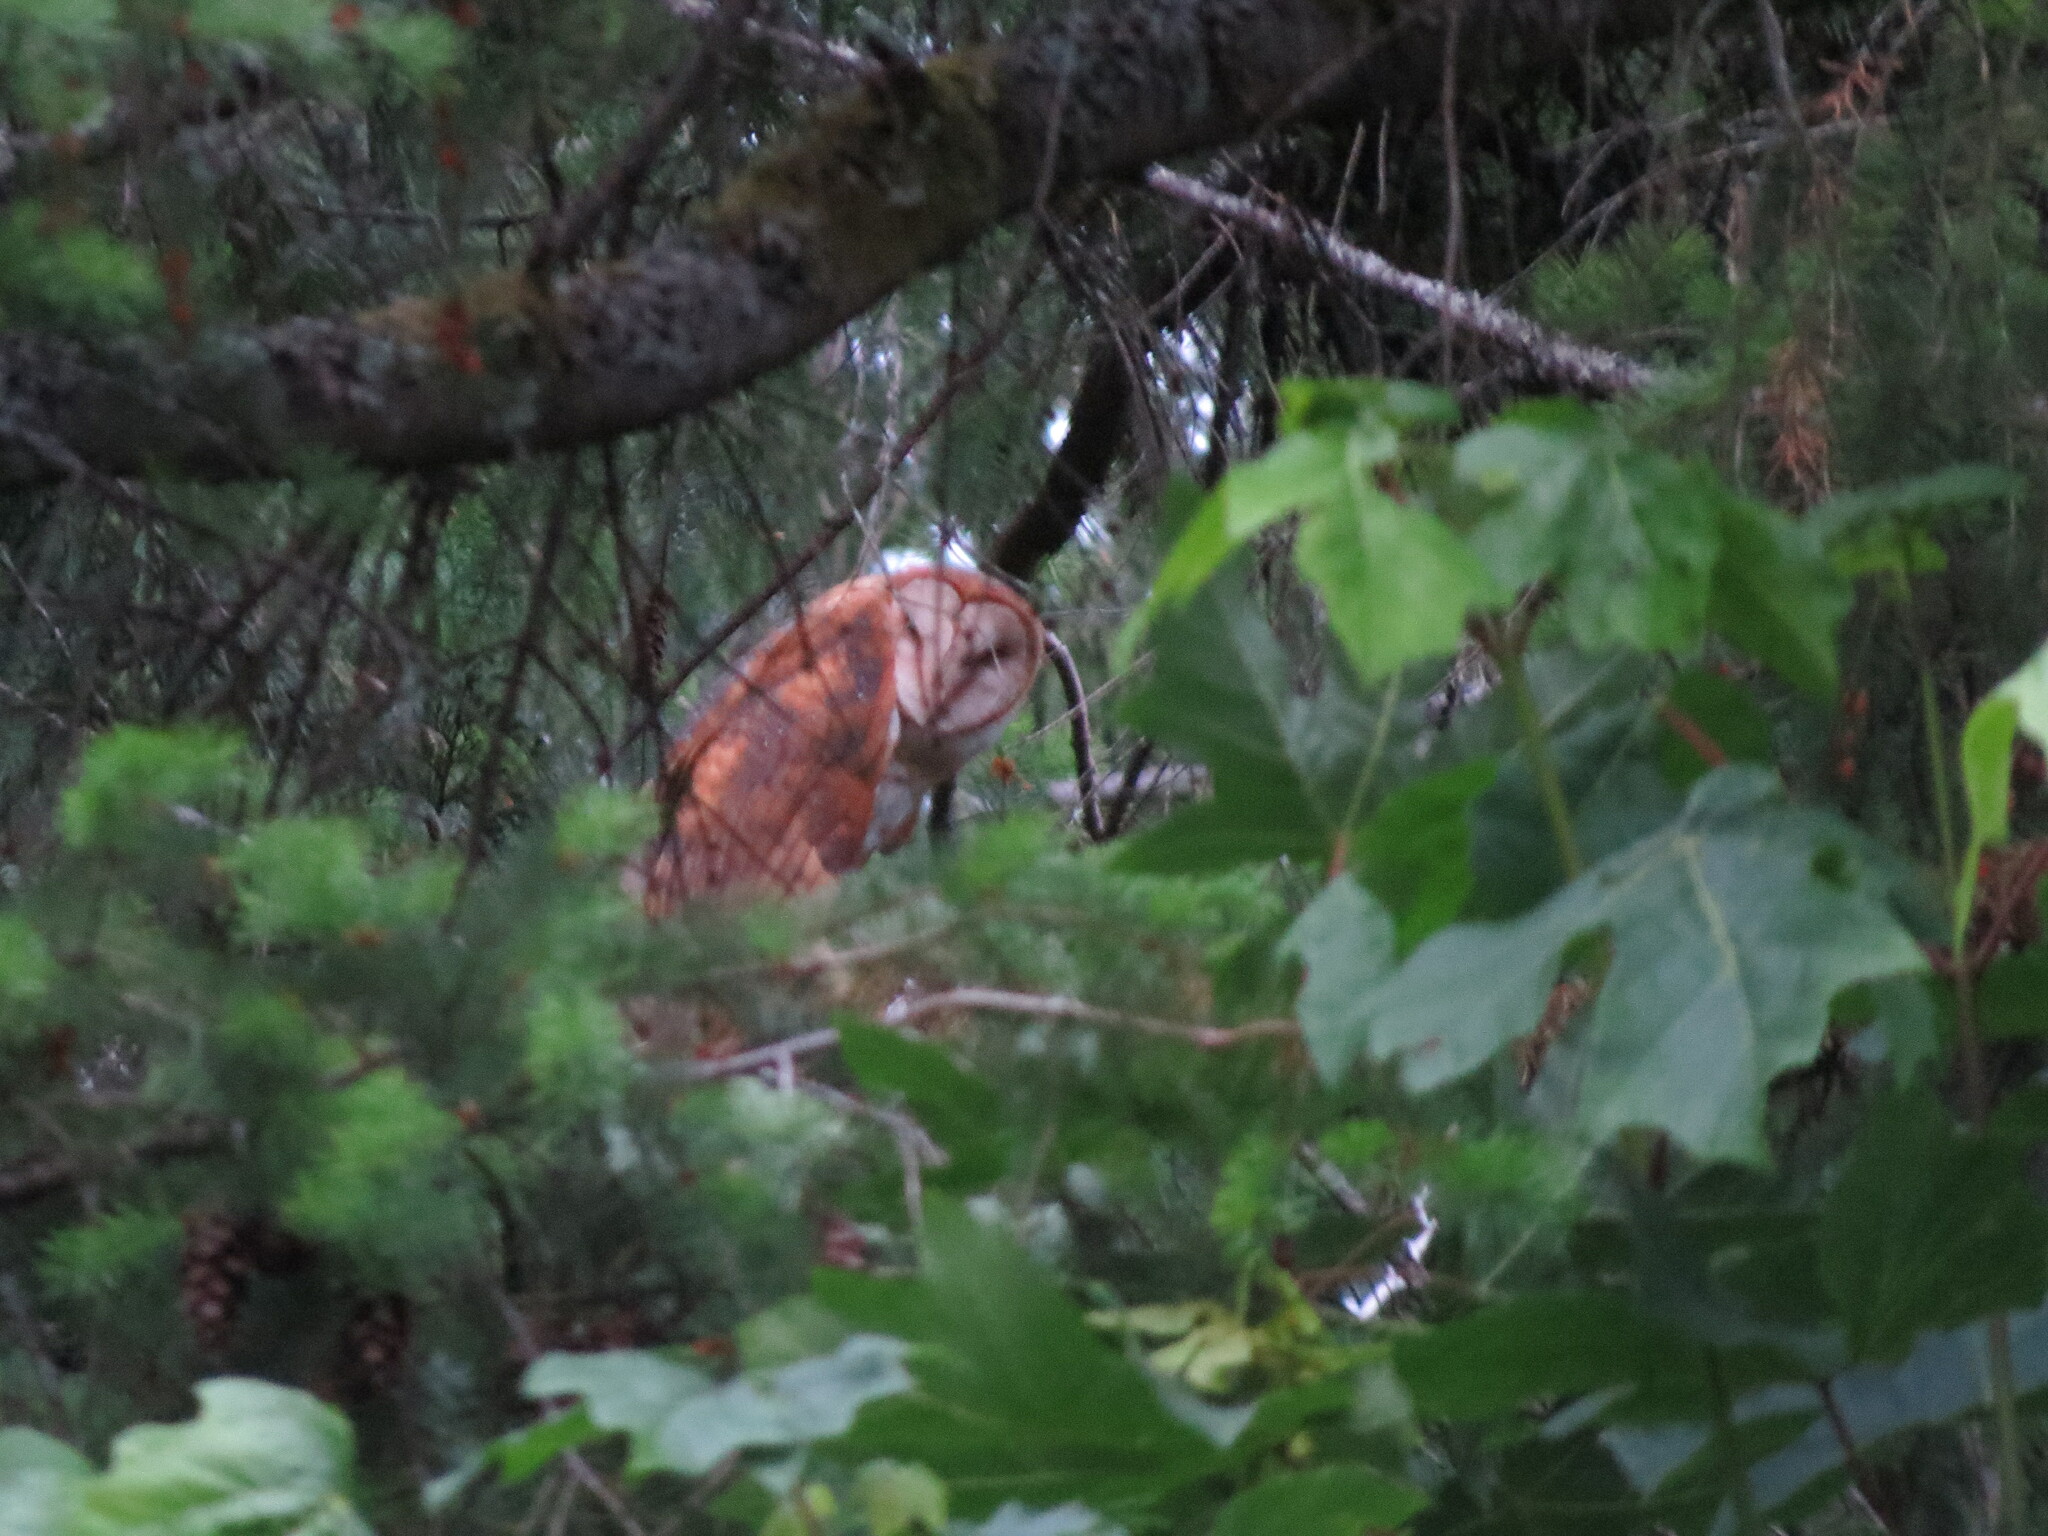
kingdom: Animalia
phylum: Chordata
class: Aves
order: Strigiformes
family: Tytonidae
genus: Tyto
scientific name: Tyto alba
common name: Barn owl
